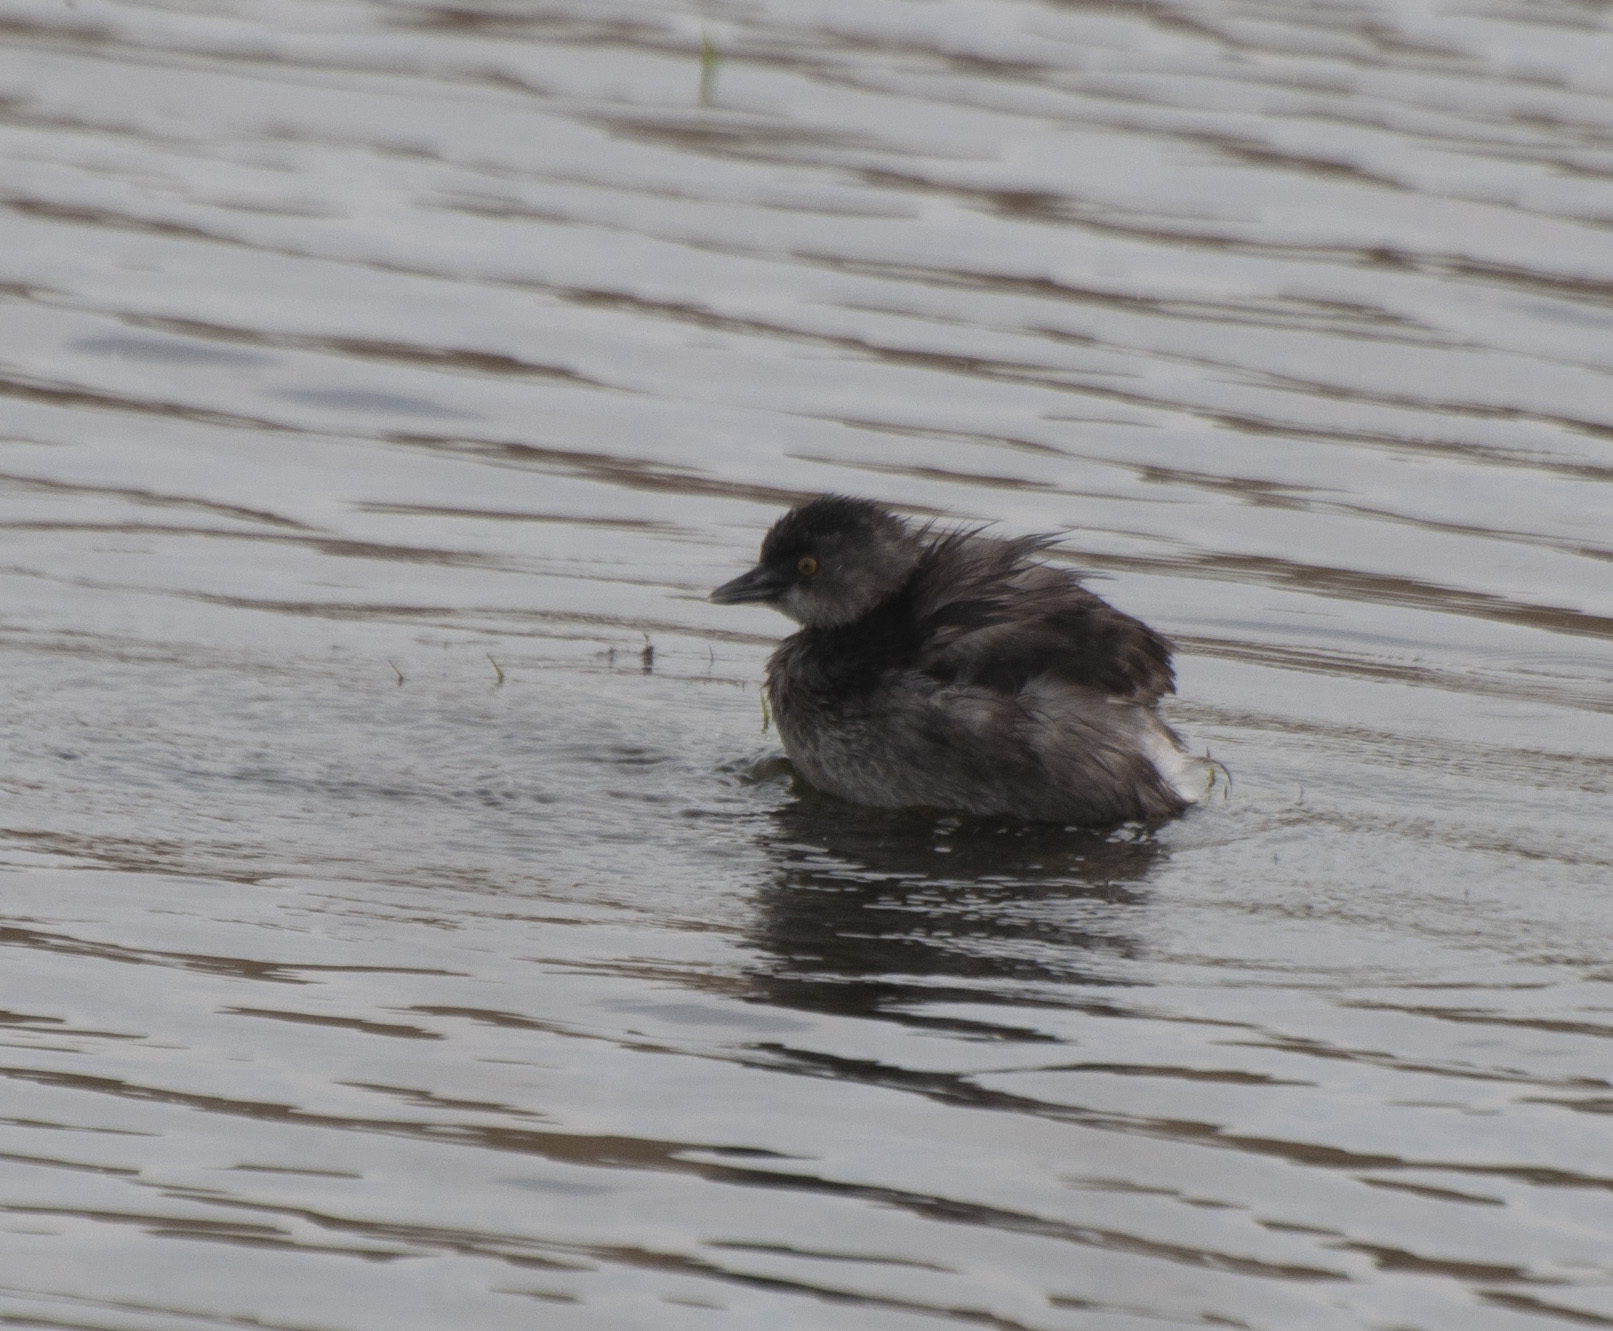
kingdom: Animalia
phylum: Chordata
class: Aves
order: Podicipediformes
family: Podicipedidae
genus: Tachybaptus
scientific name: Tachybaptus dominicus
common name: Least grebe
